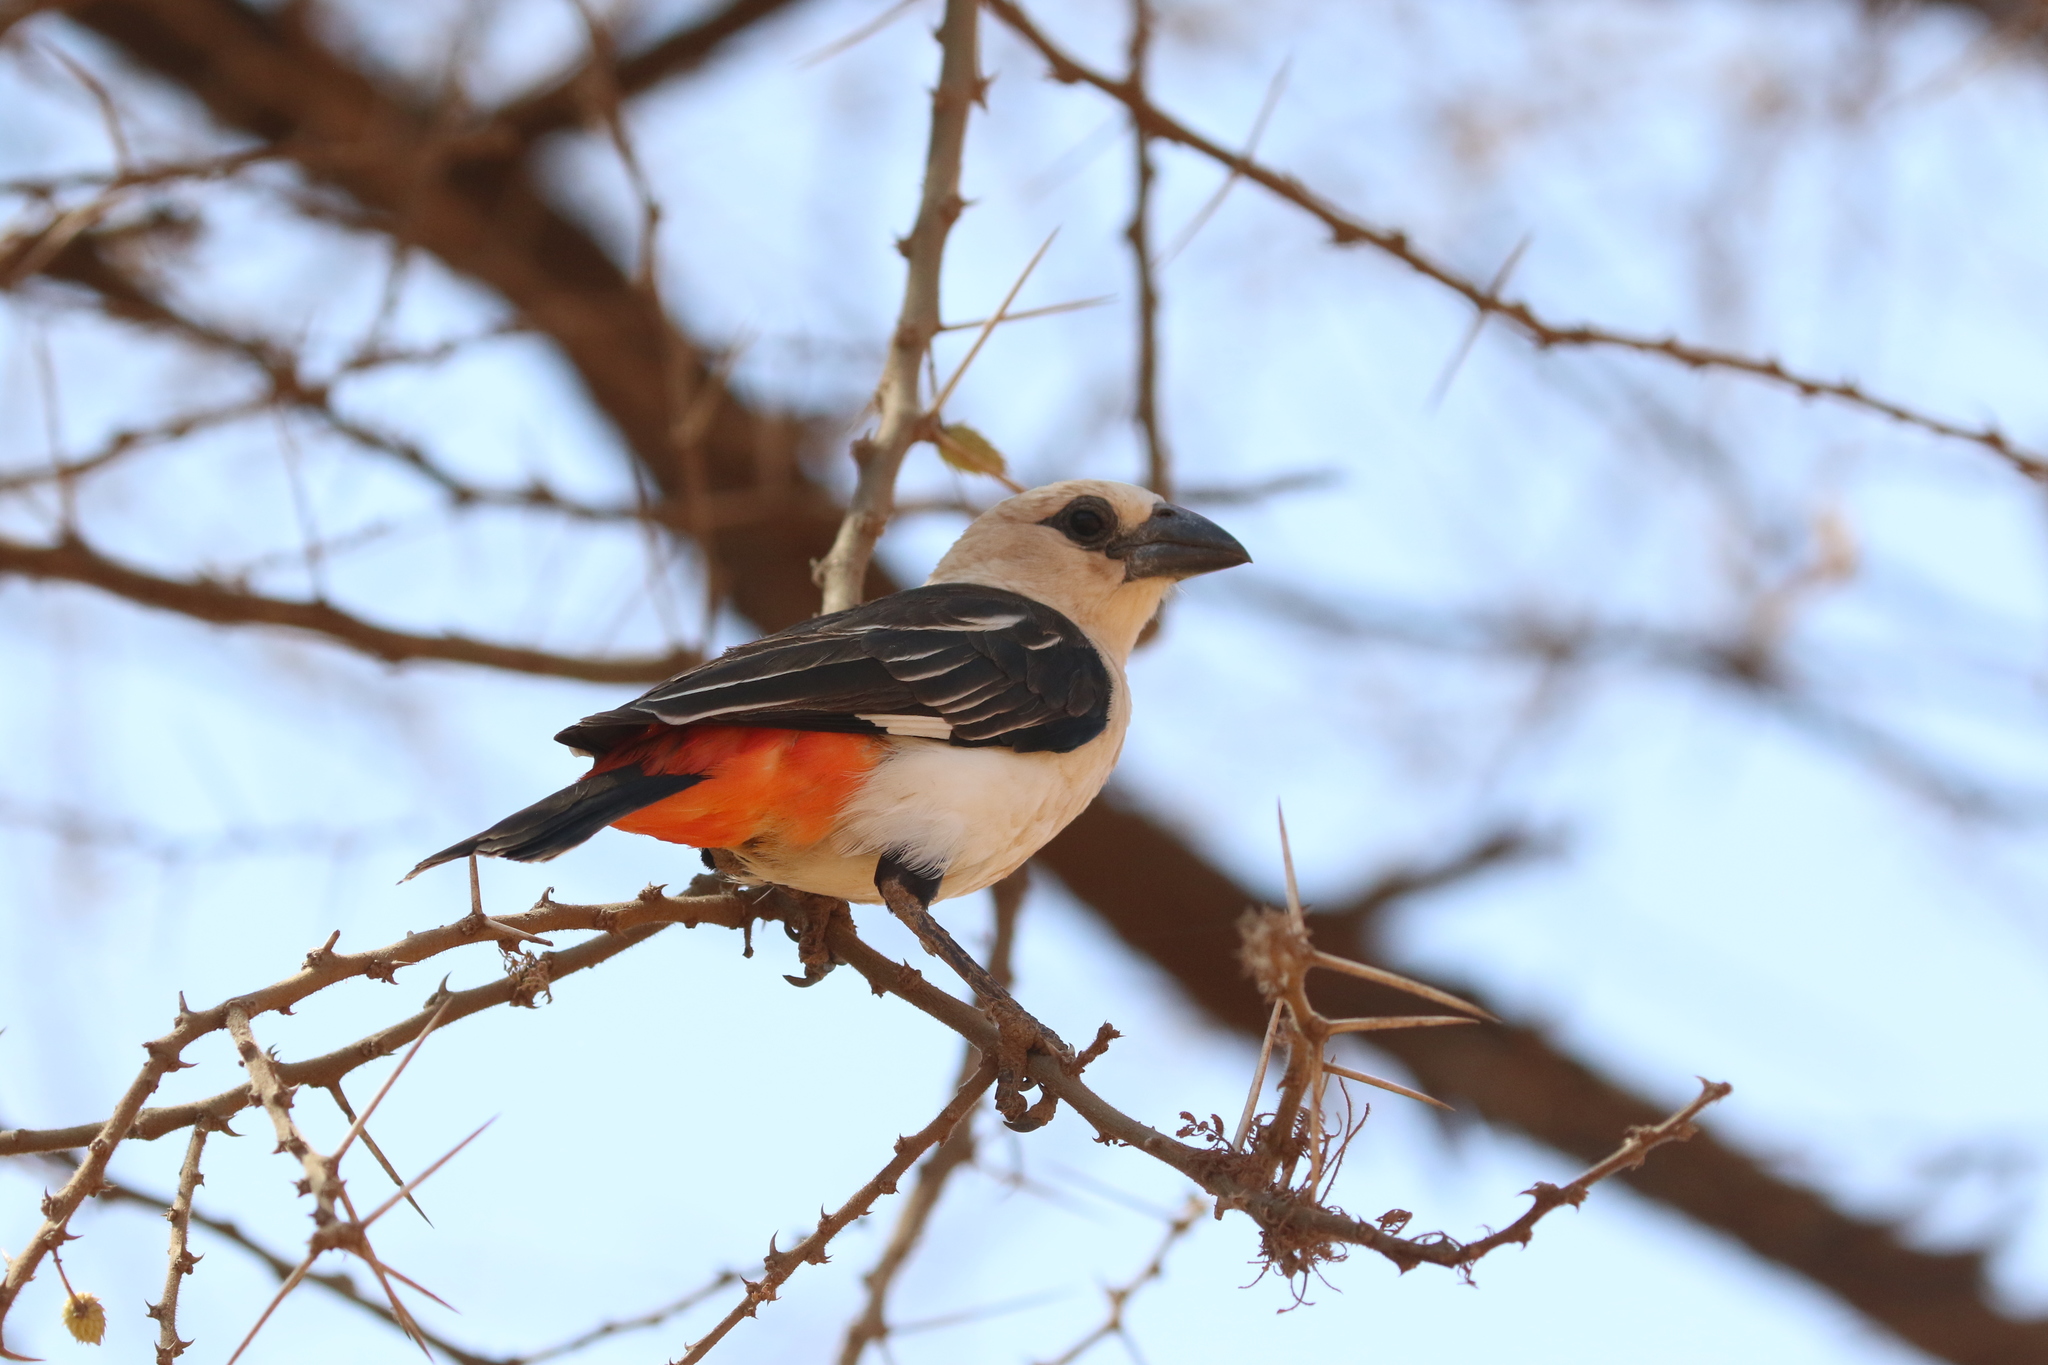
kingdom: Animalia
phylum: Chordata
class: Aves
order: Passeriformes
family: Ploceidae
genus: Dinemellia
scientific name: Dinemellia dinemelli
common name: White-headed buffalo weaver
